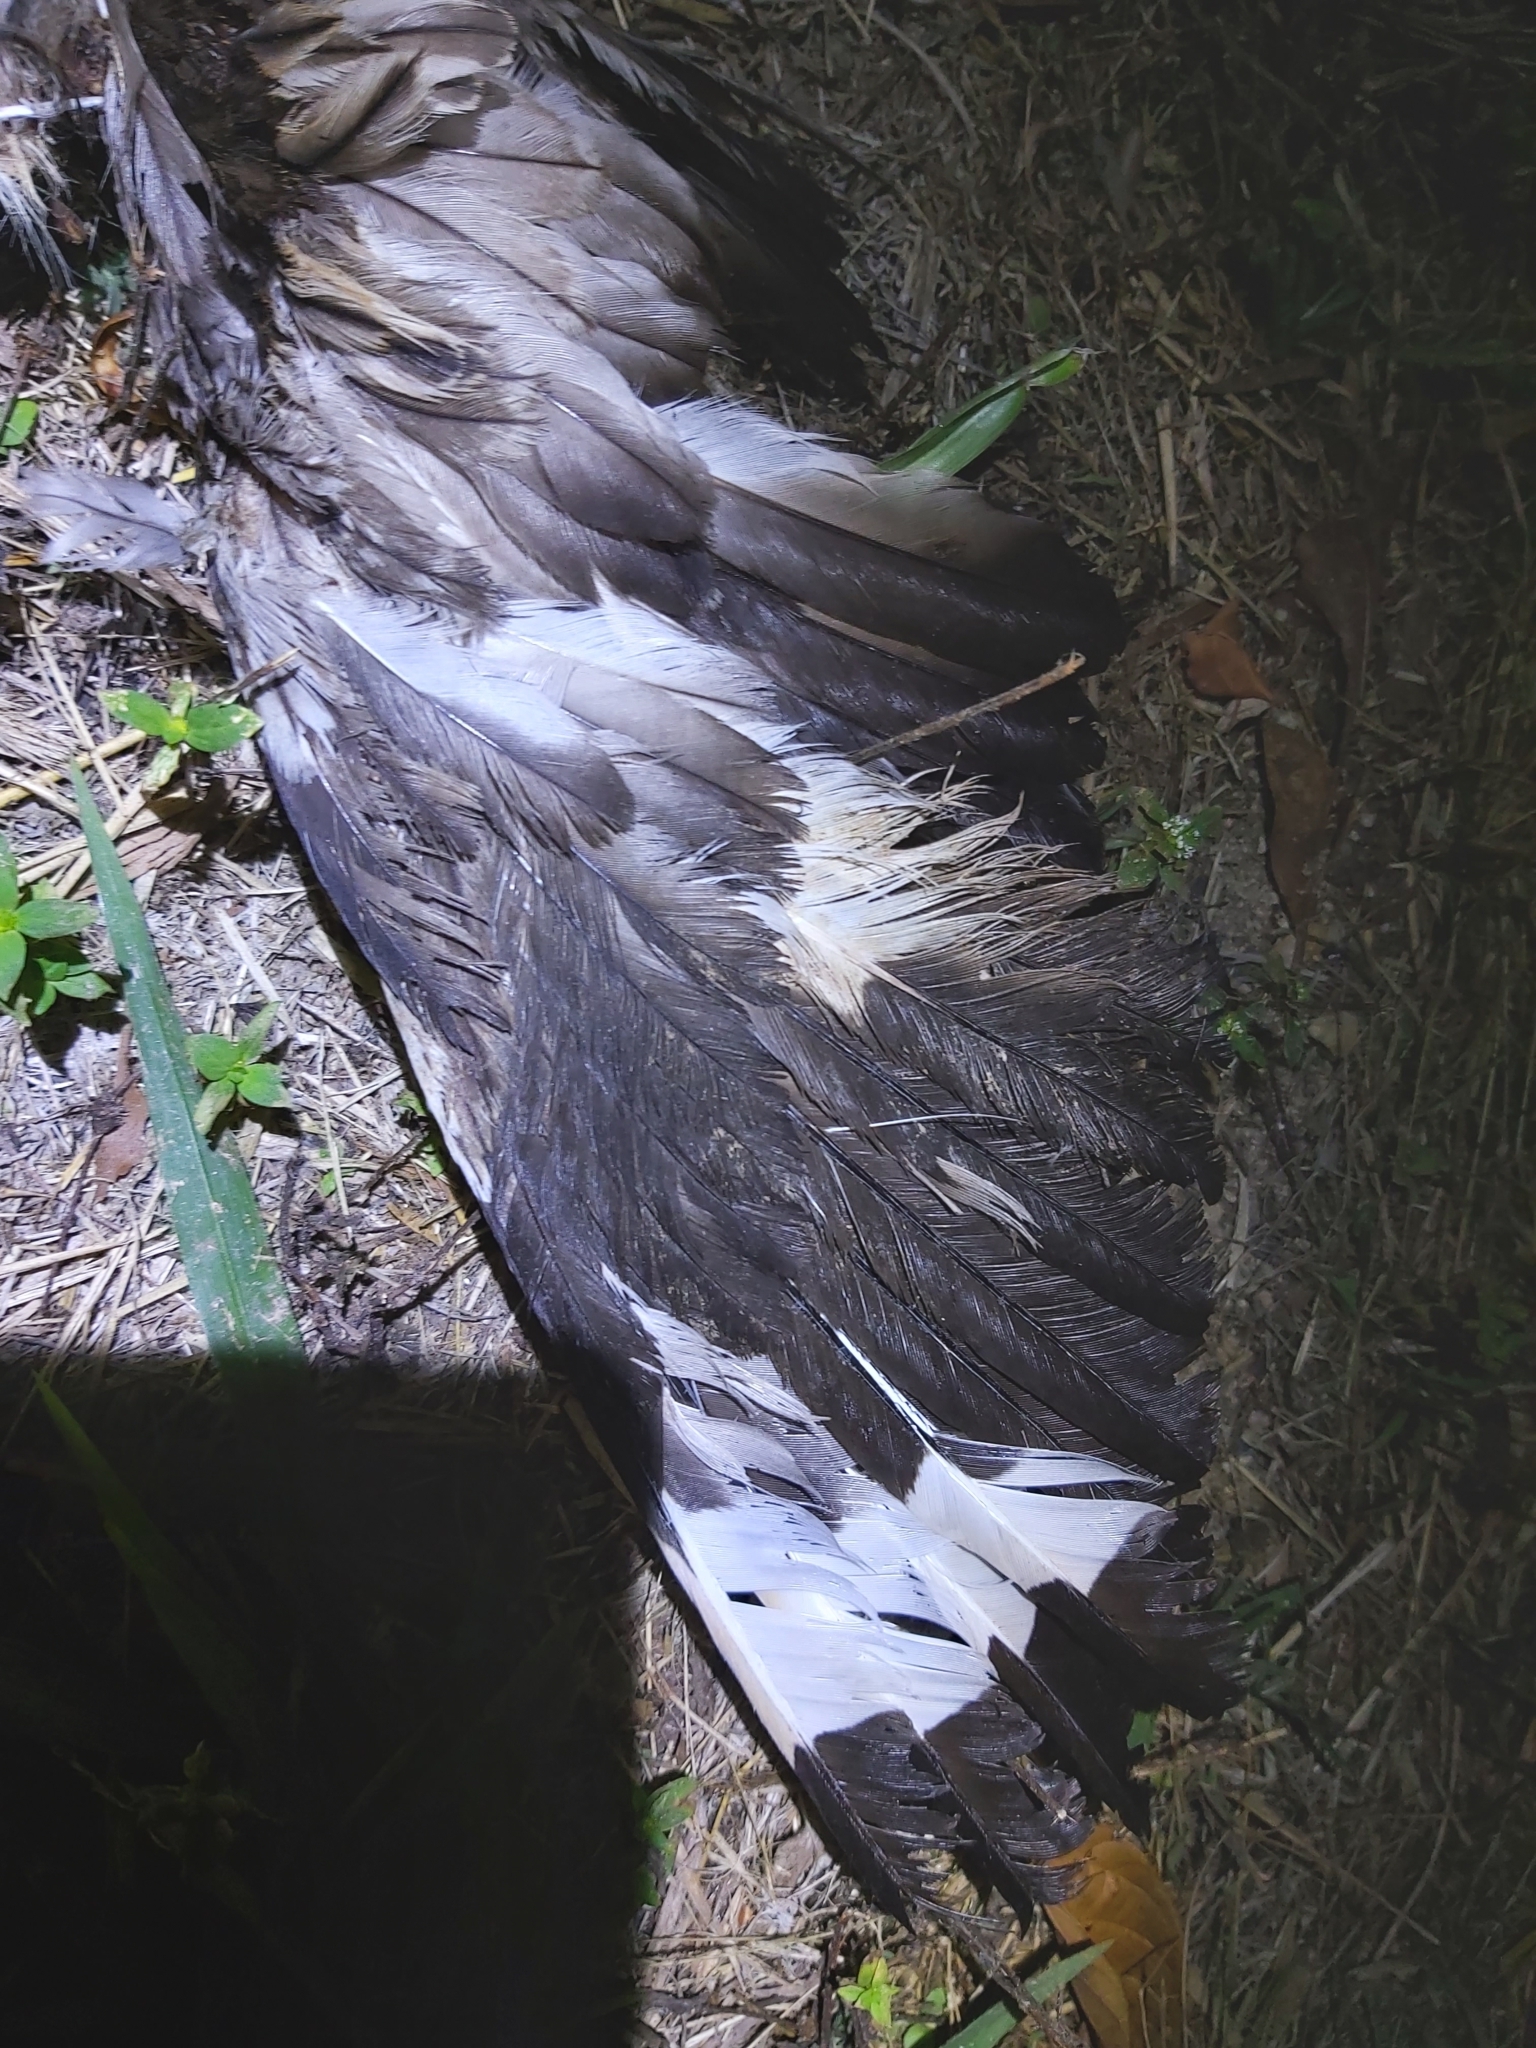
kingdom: Animalia
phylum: Chordata
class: Aves
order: Charadriiformes
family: Burhinidae
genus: Burhinus
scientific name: Burhinus grallarius
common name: Bush stone-curlew
